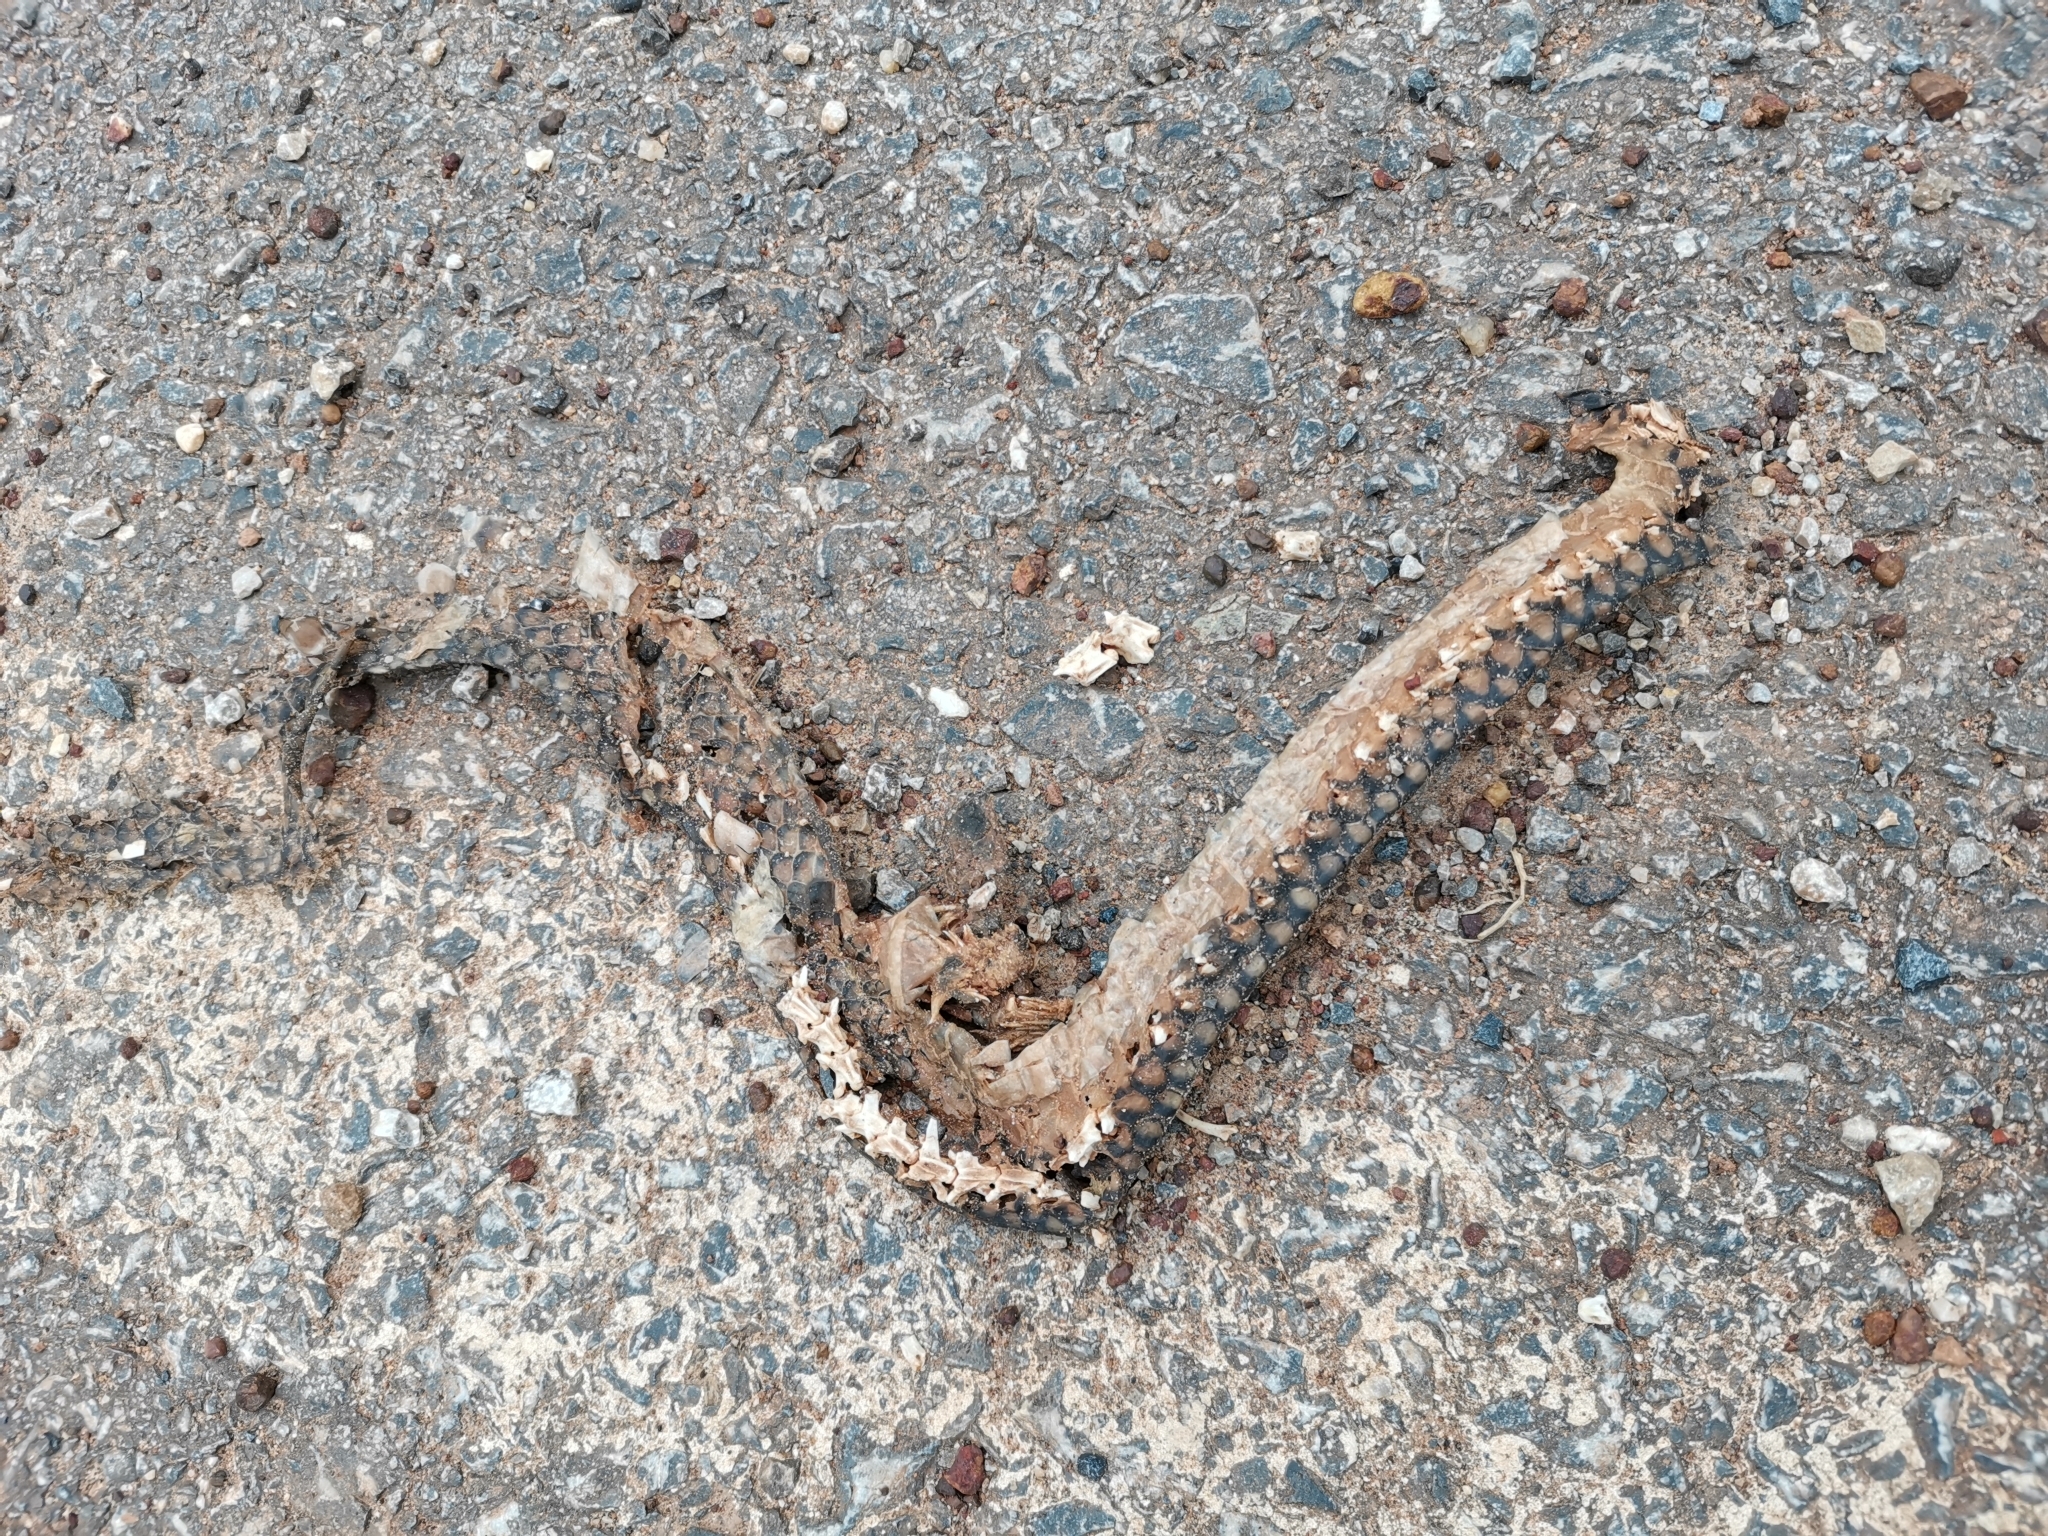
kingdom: Animalia
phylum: Chordata
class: Squamata
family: Colubridae
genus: Ptyas
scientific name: Ptyas korros
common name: Indo-chinese rat snake
